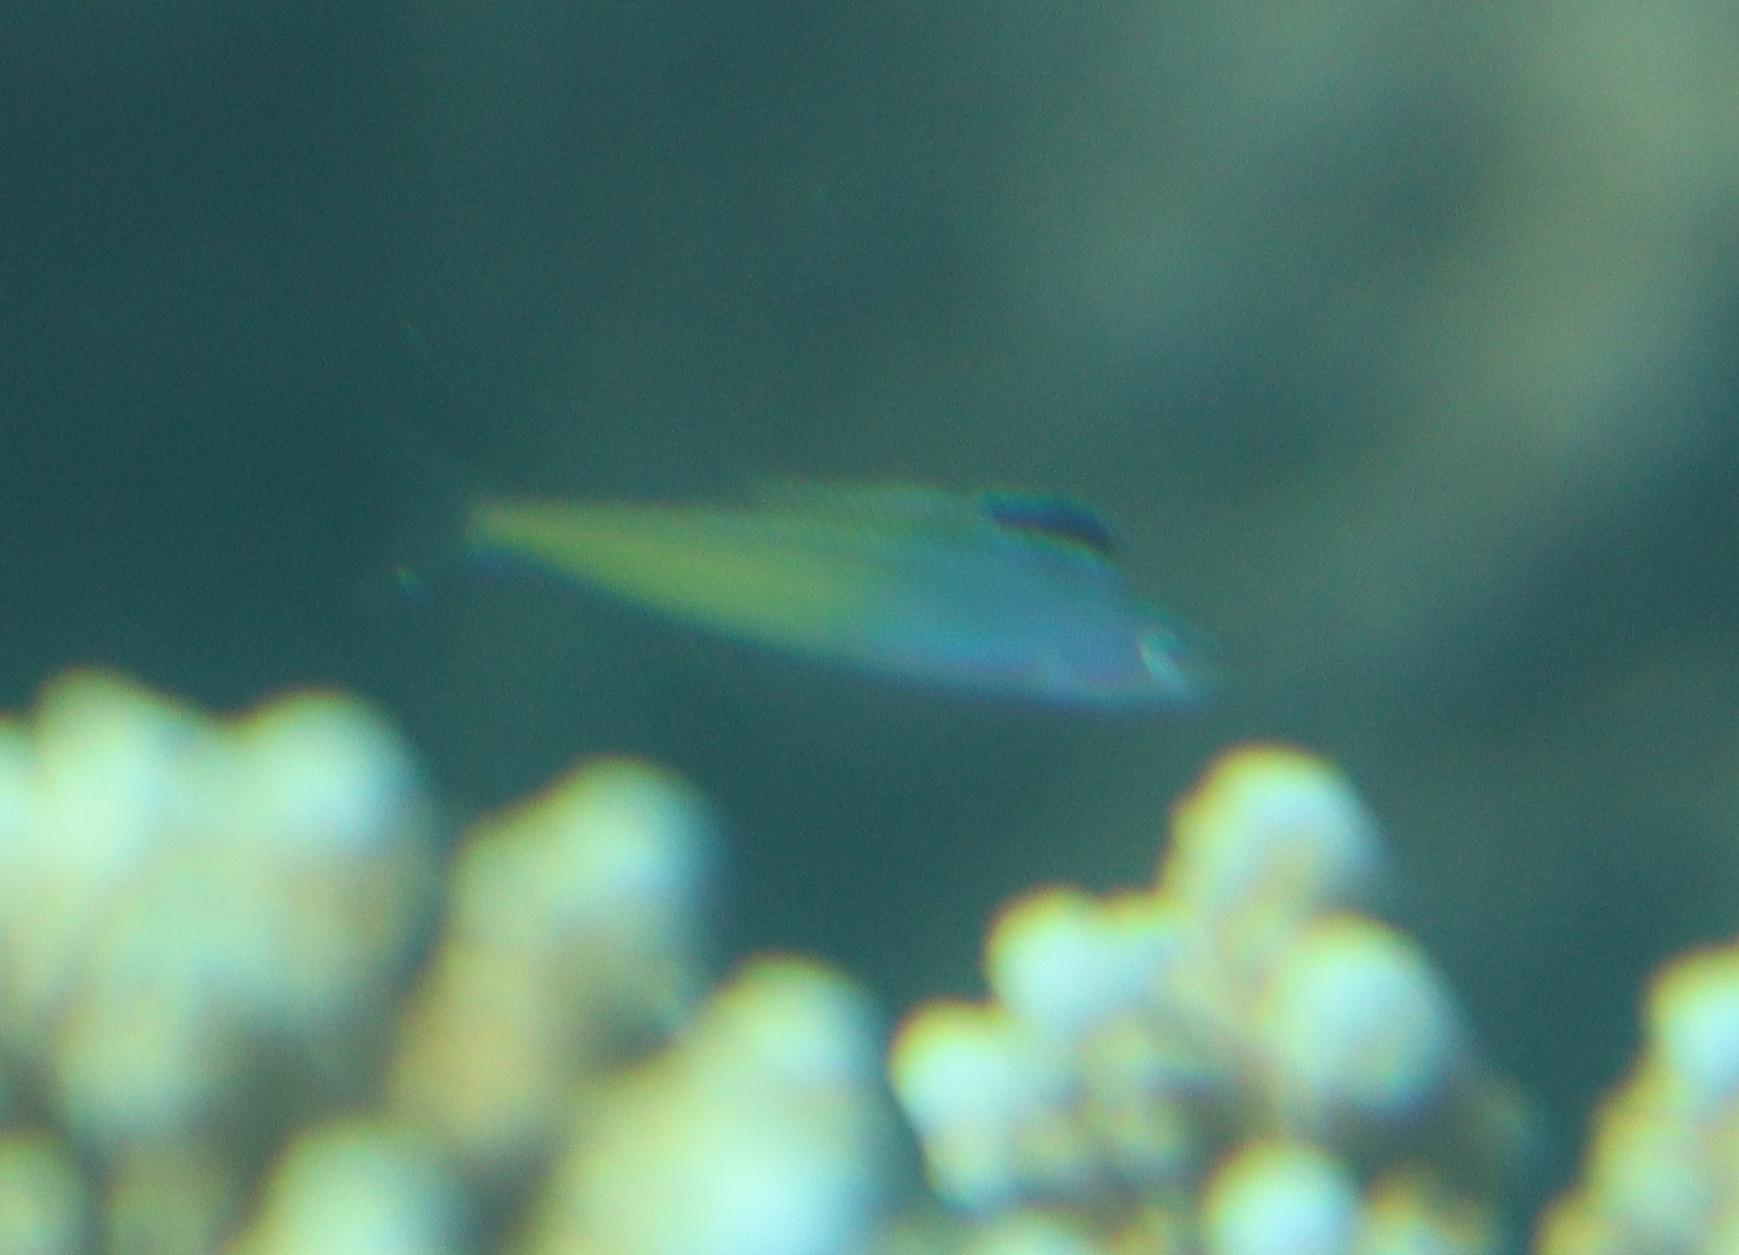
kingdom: Animalia
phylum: Chordata
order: Perciformes
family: Blenniidae
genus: Plagiotremus
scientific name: Plagiotremus townsendi
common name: Townsend's fangblenny
